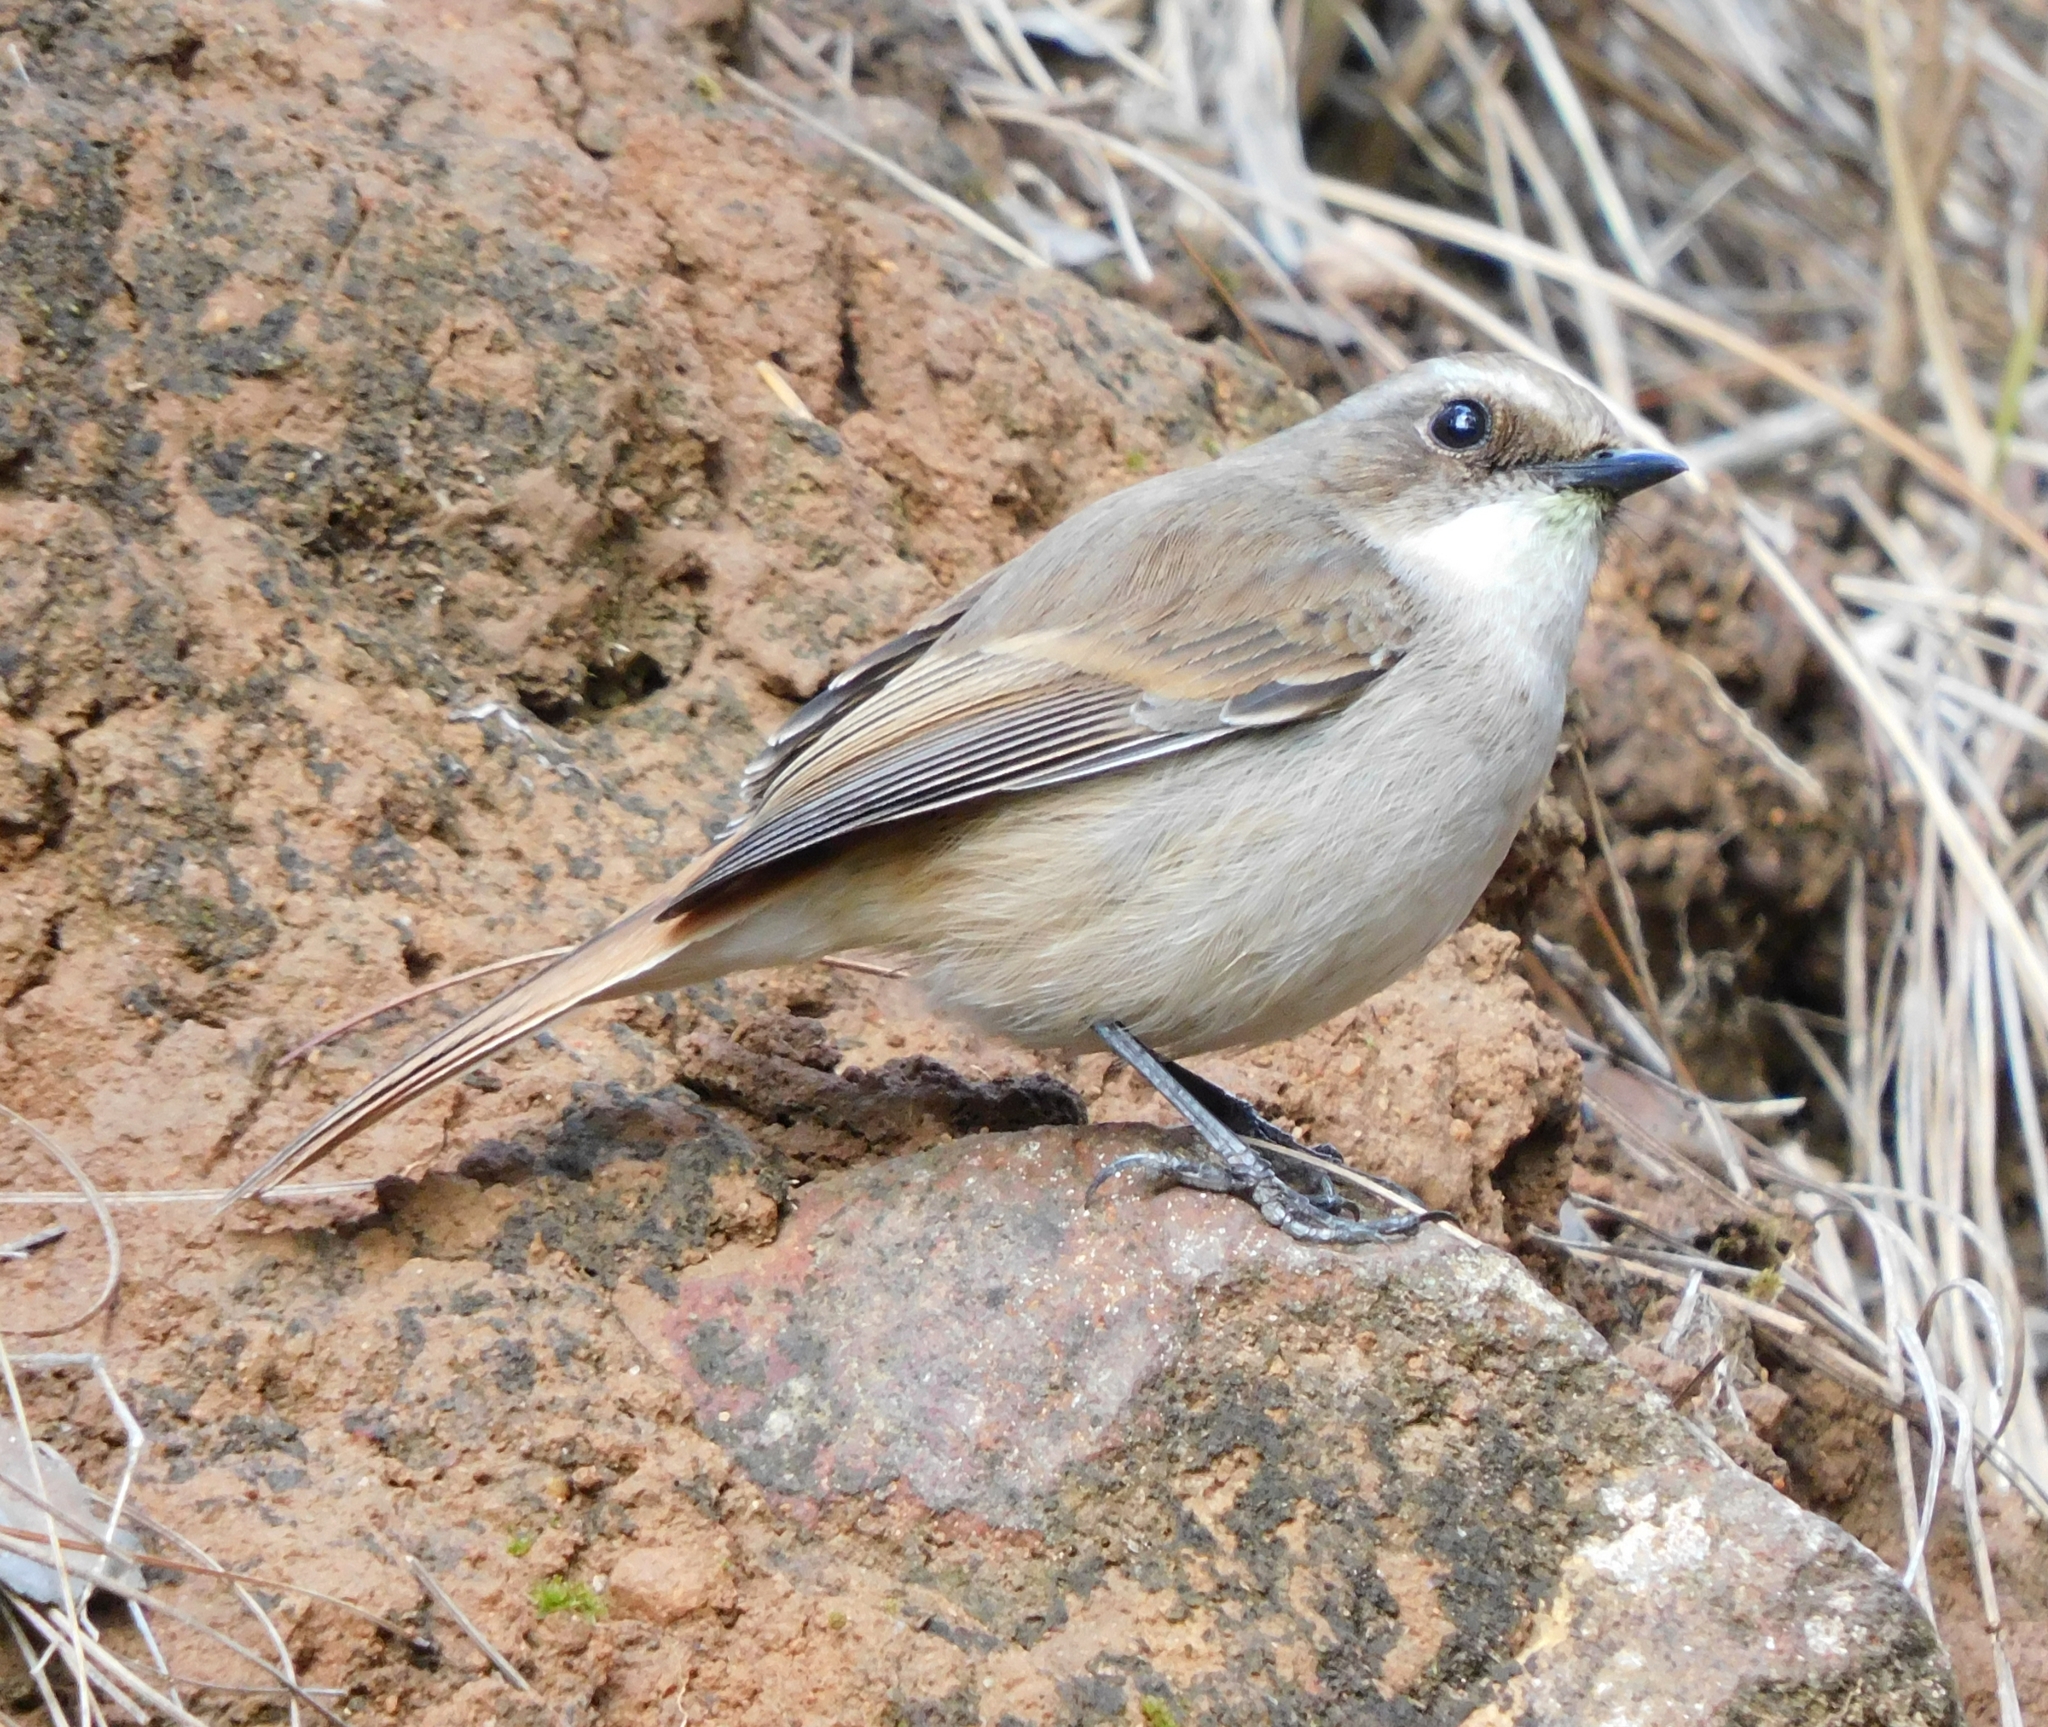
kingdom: Animalia
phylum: Chordata
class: Aves
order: Passeriformes
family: Muscicapidae
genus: Saxicola
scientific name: Saxicola ferreus
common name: Grey bush chat
